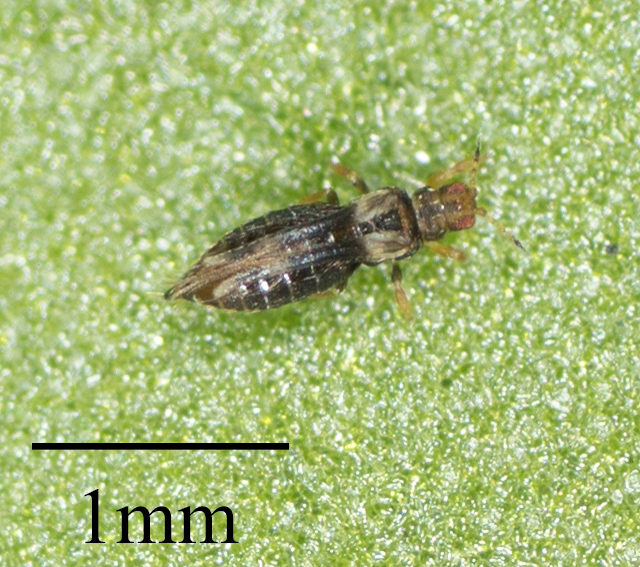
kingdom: Animalia
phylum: Arthropoda
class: Insecta
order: Thysanoptera
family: Thripidae
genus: Hercinothrips
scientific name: Hercinothrips femoralis
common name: Banded greenhouse thrips
